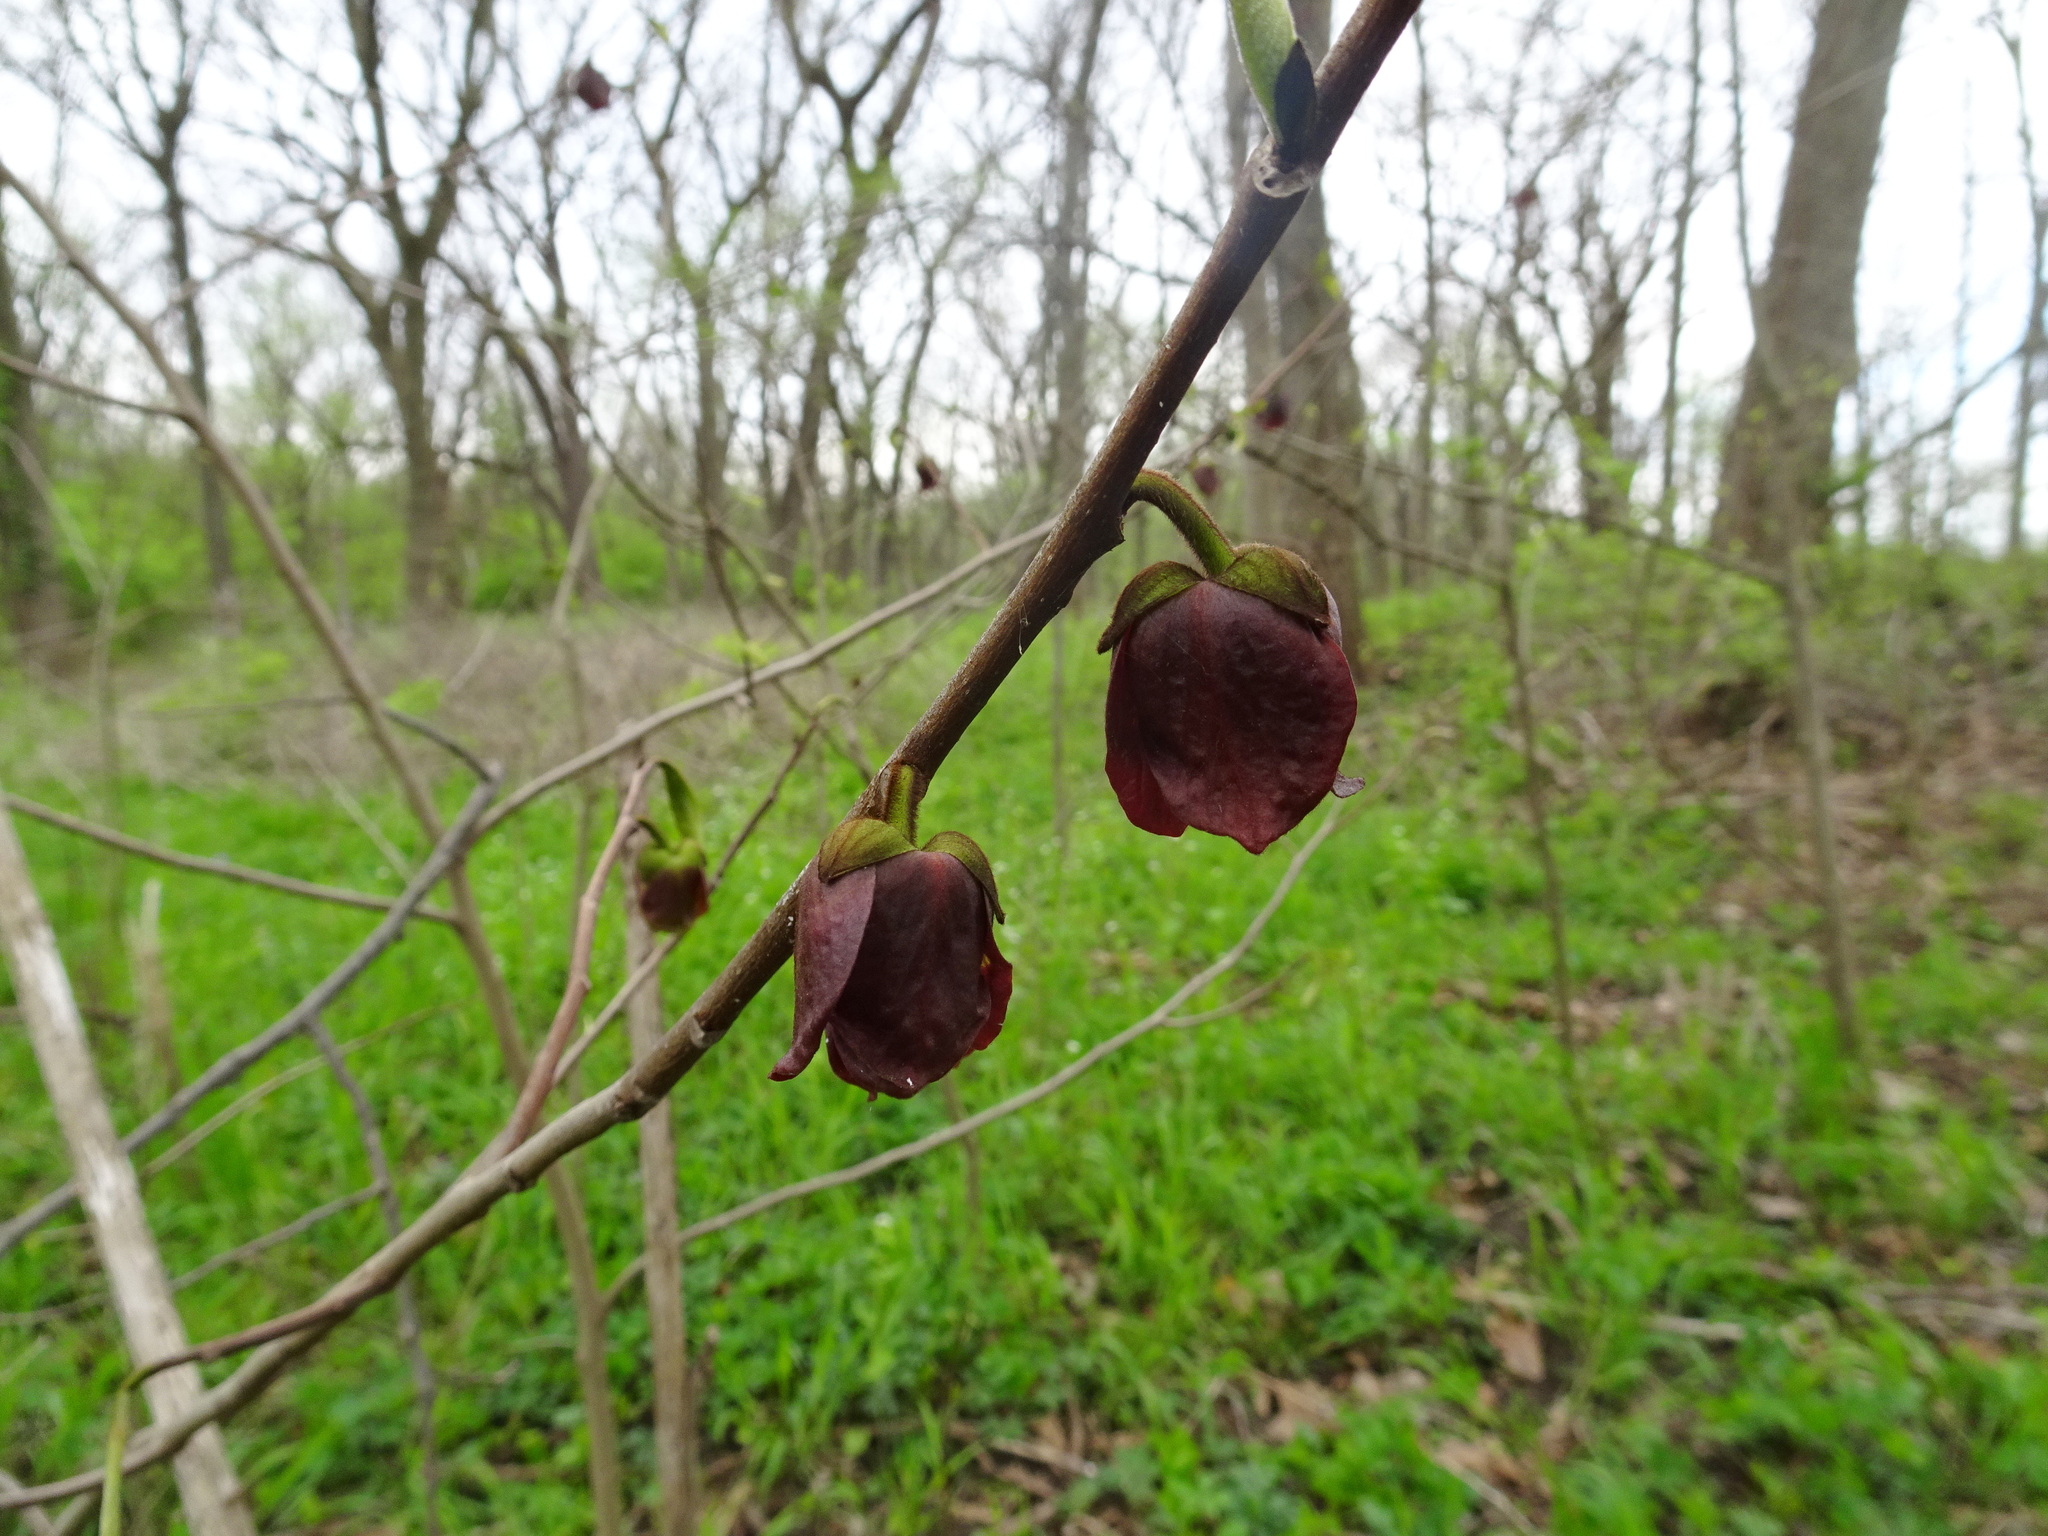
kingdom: Plantae
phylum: Tracheophyta
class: Magnoliopsida
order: Magnoliales
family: Annonaceae
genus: Asimina
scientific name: Asimina triloba
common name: Dog-banana
